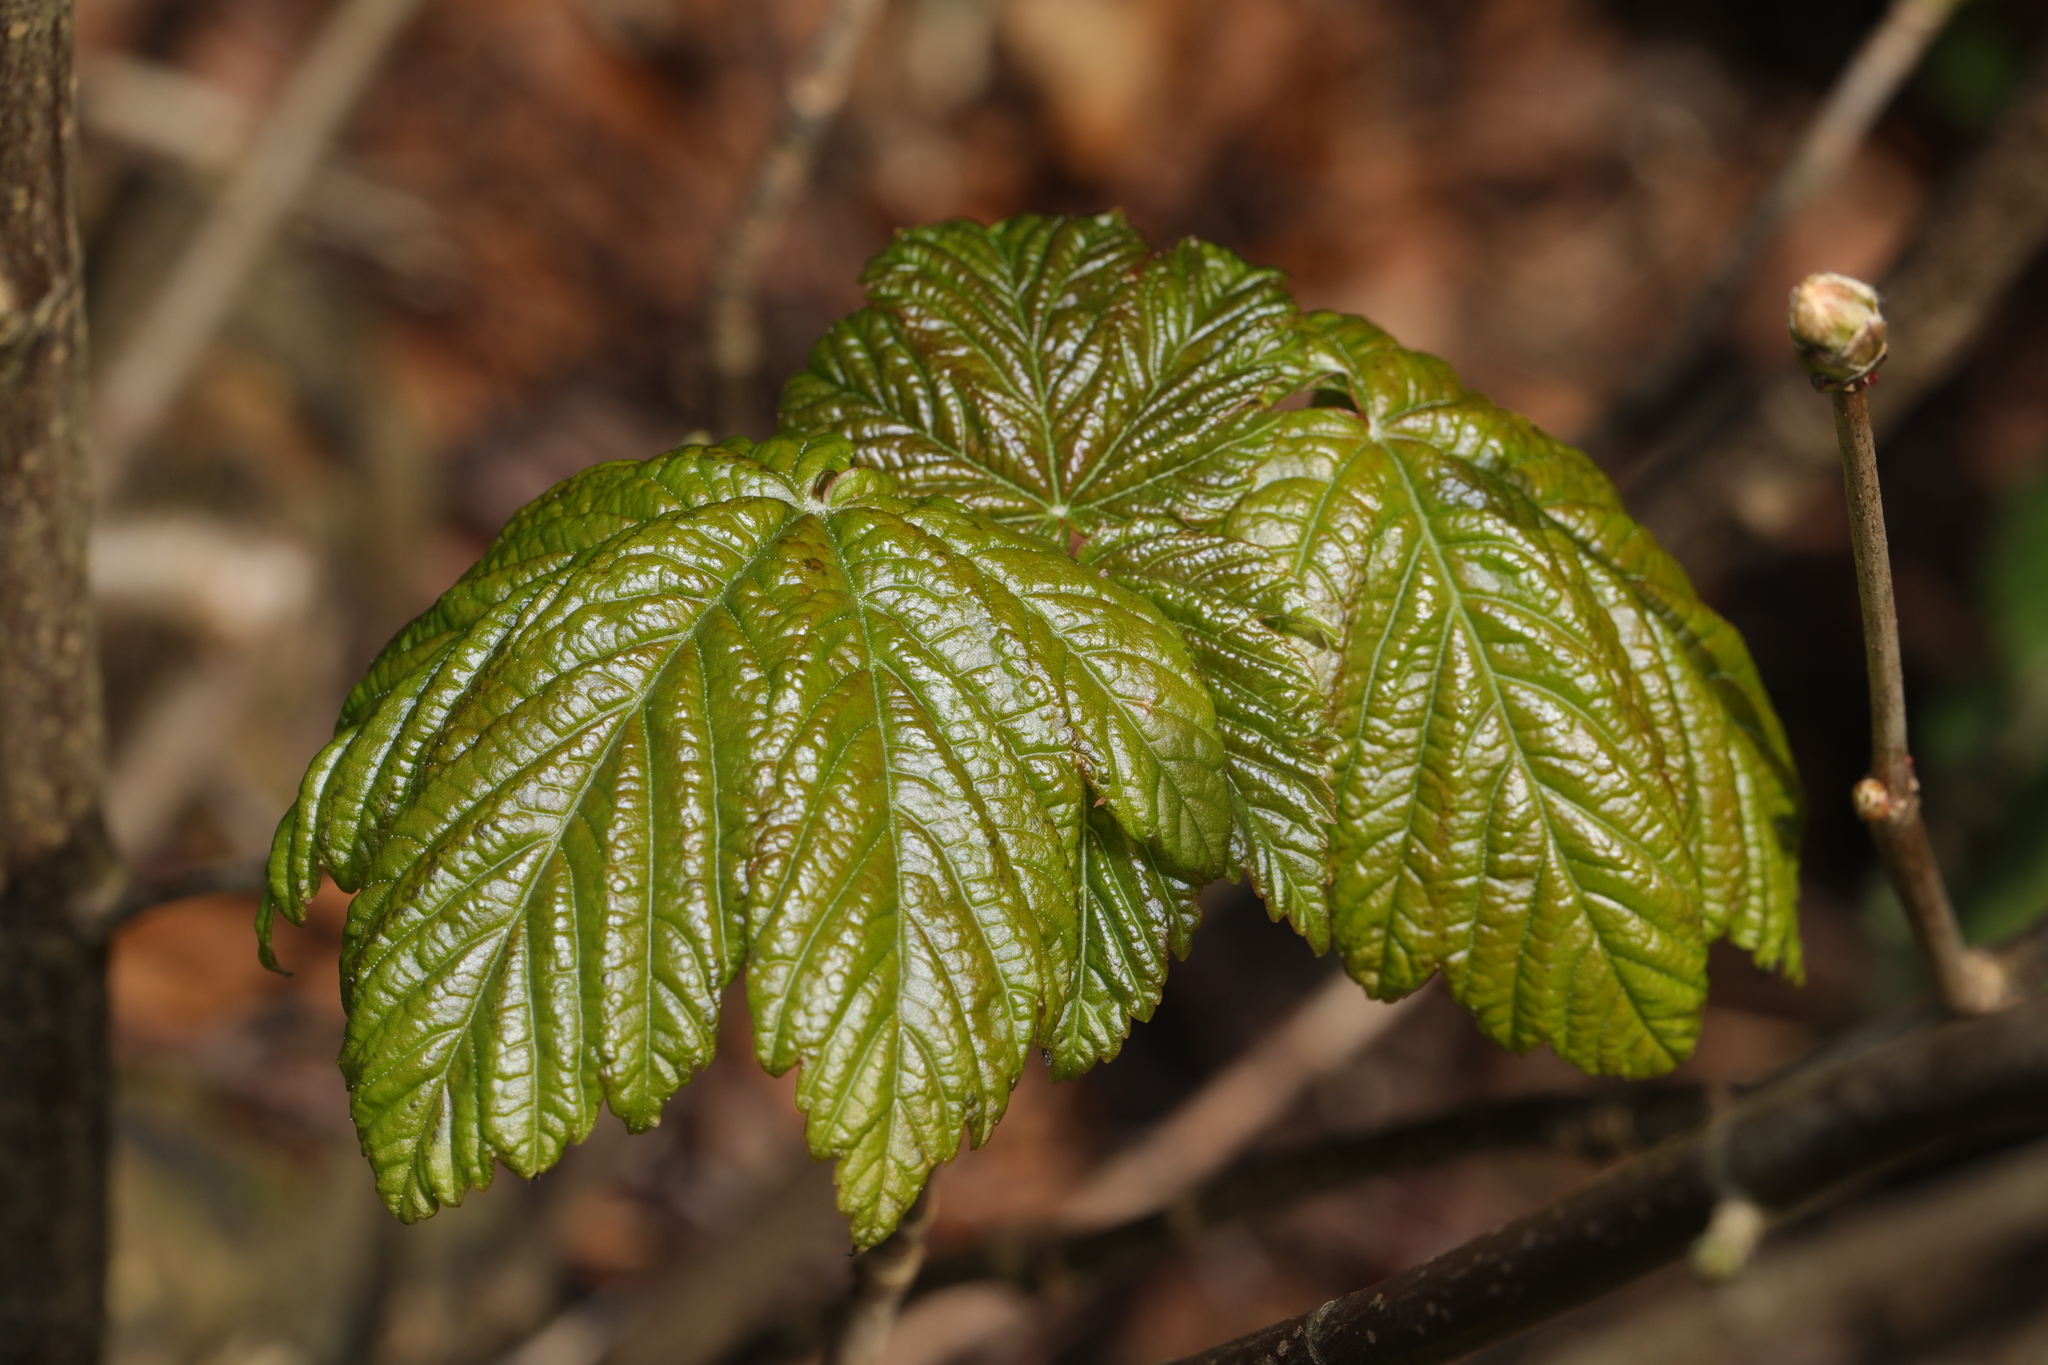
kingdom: Plantae
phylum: Tracheophyta
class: Magnoliopsida
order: Sapindales
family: Sapindaceae
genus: Acer
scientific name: Acer pseudoplatanus
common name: Sycamore
